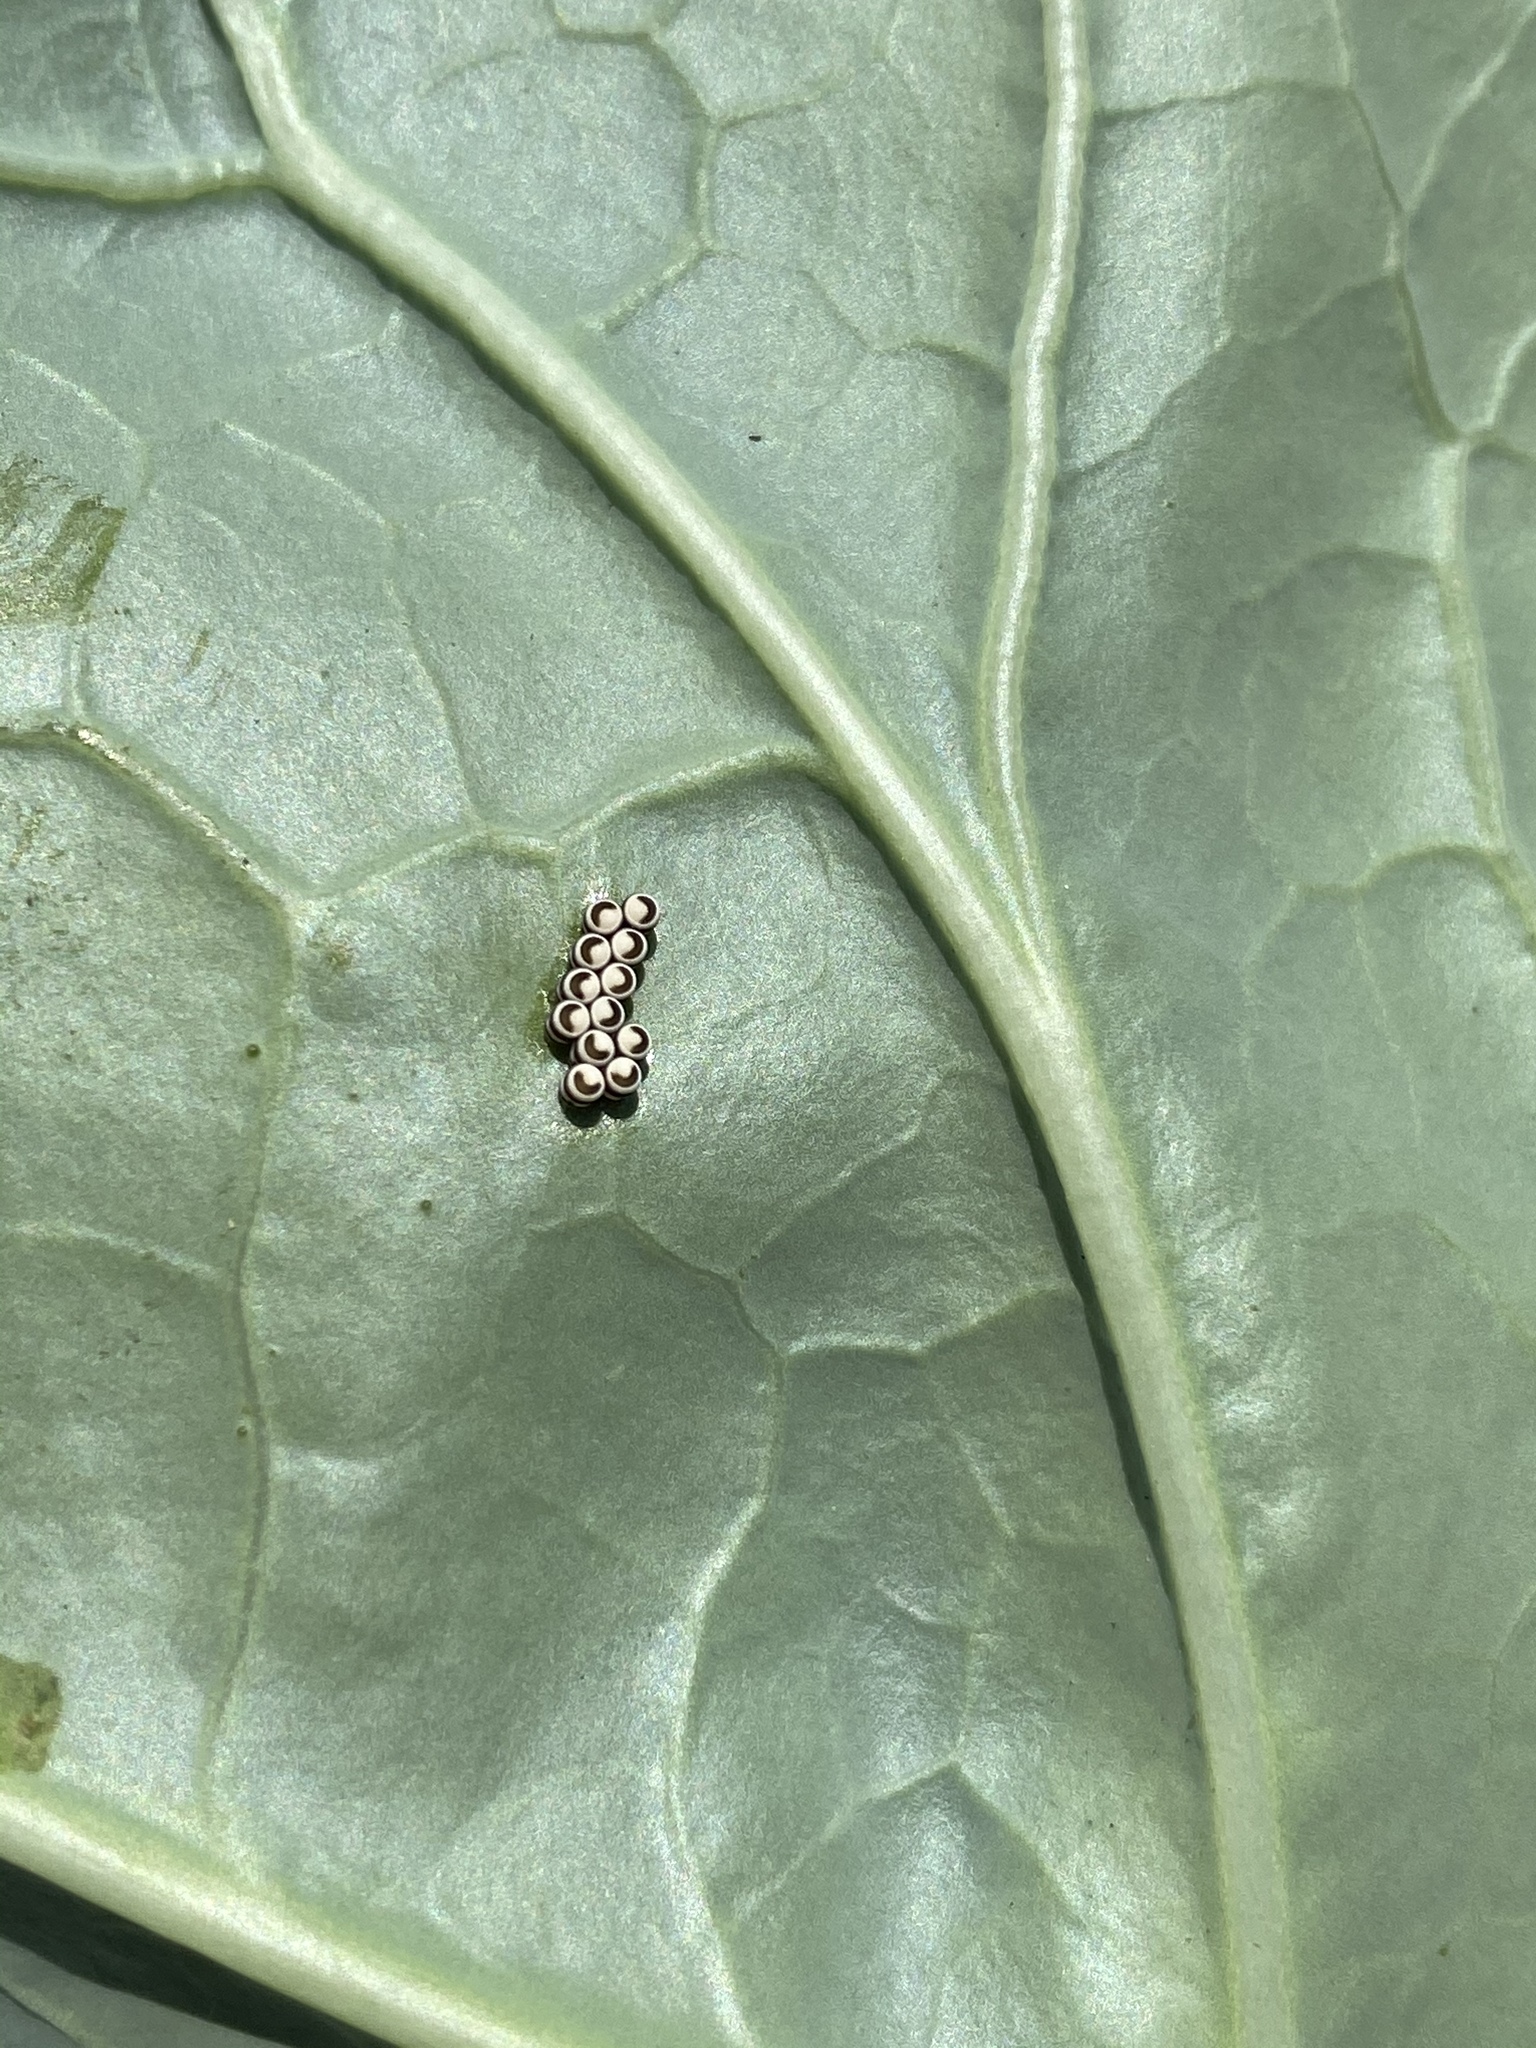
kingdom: Animalia
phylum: Arthropoda
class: Insecta
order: Hemiptera
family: Pentatomidae
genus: Murgantia
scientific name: Murgantia histrionica
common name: Harlequin bug
